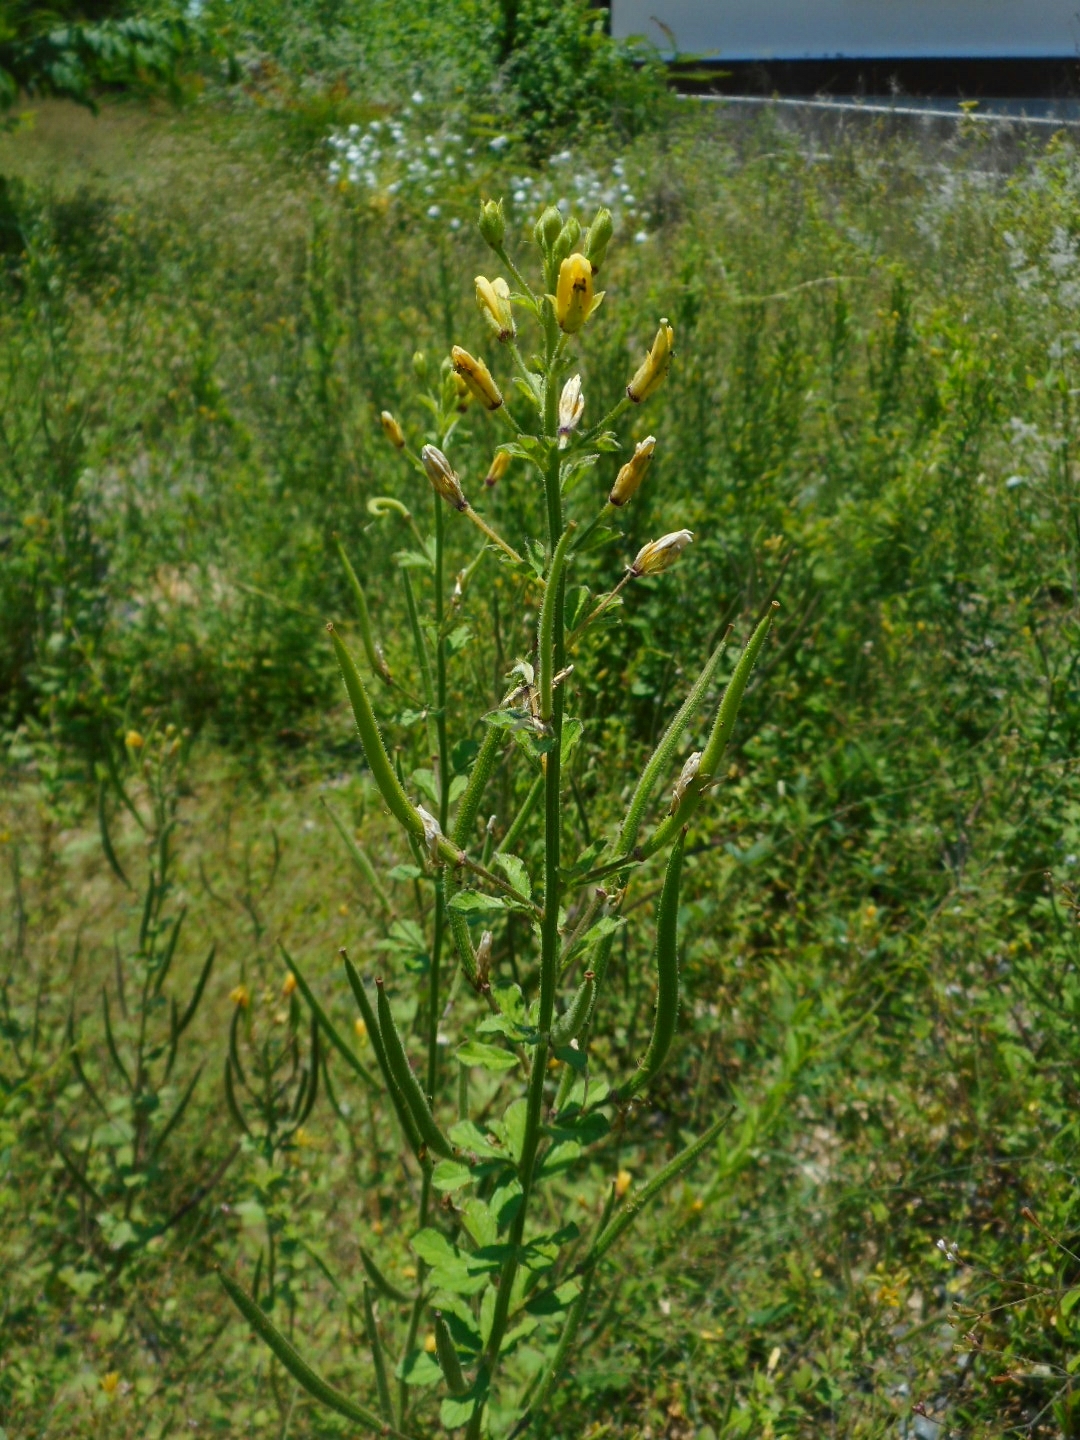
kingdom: Plantae
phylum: Tracheophyta
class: Magnoliopsida
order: Brassicales
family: Cleomaceae
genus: Arivela
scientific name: Arivela viscosa
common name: Asian spiderflower
